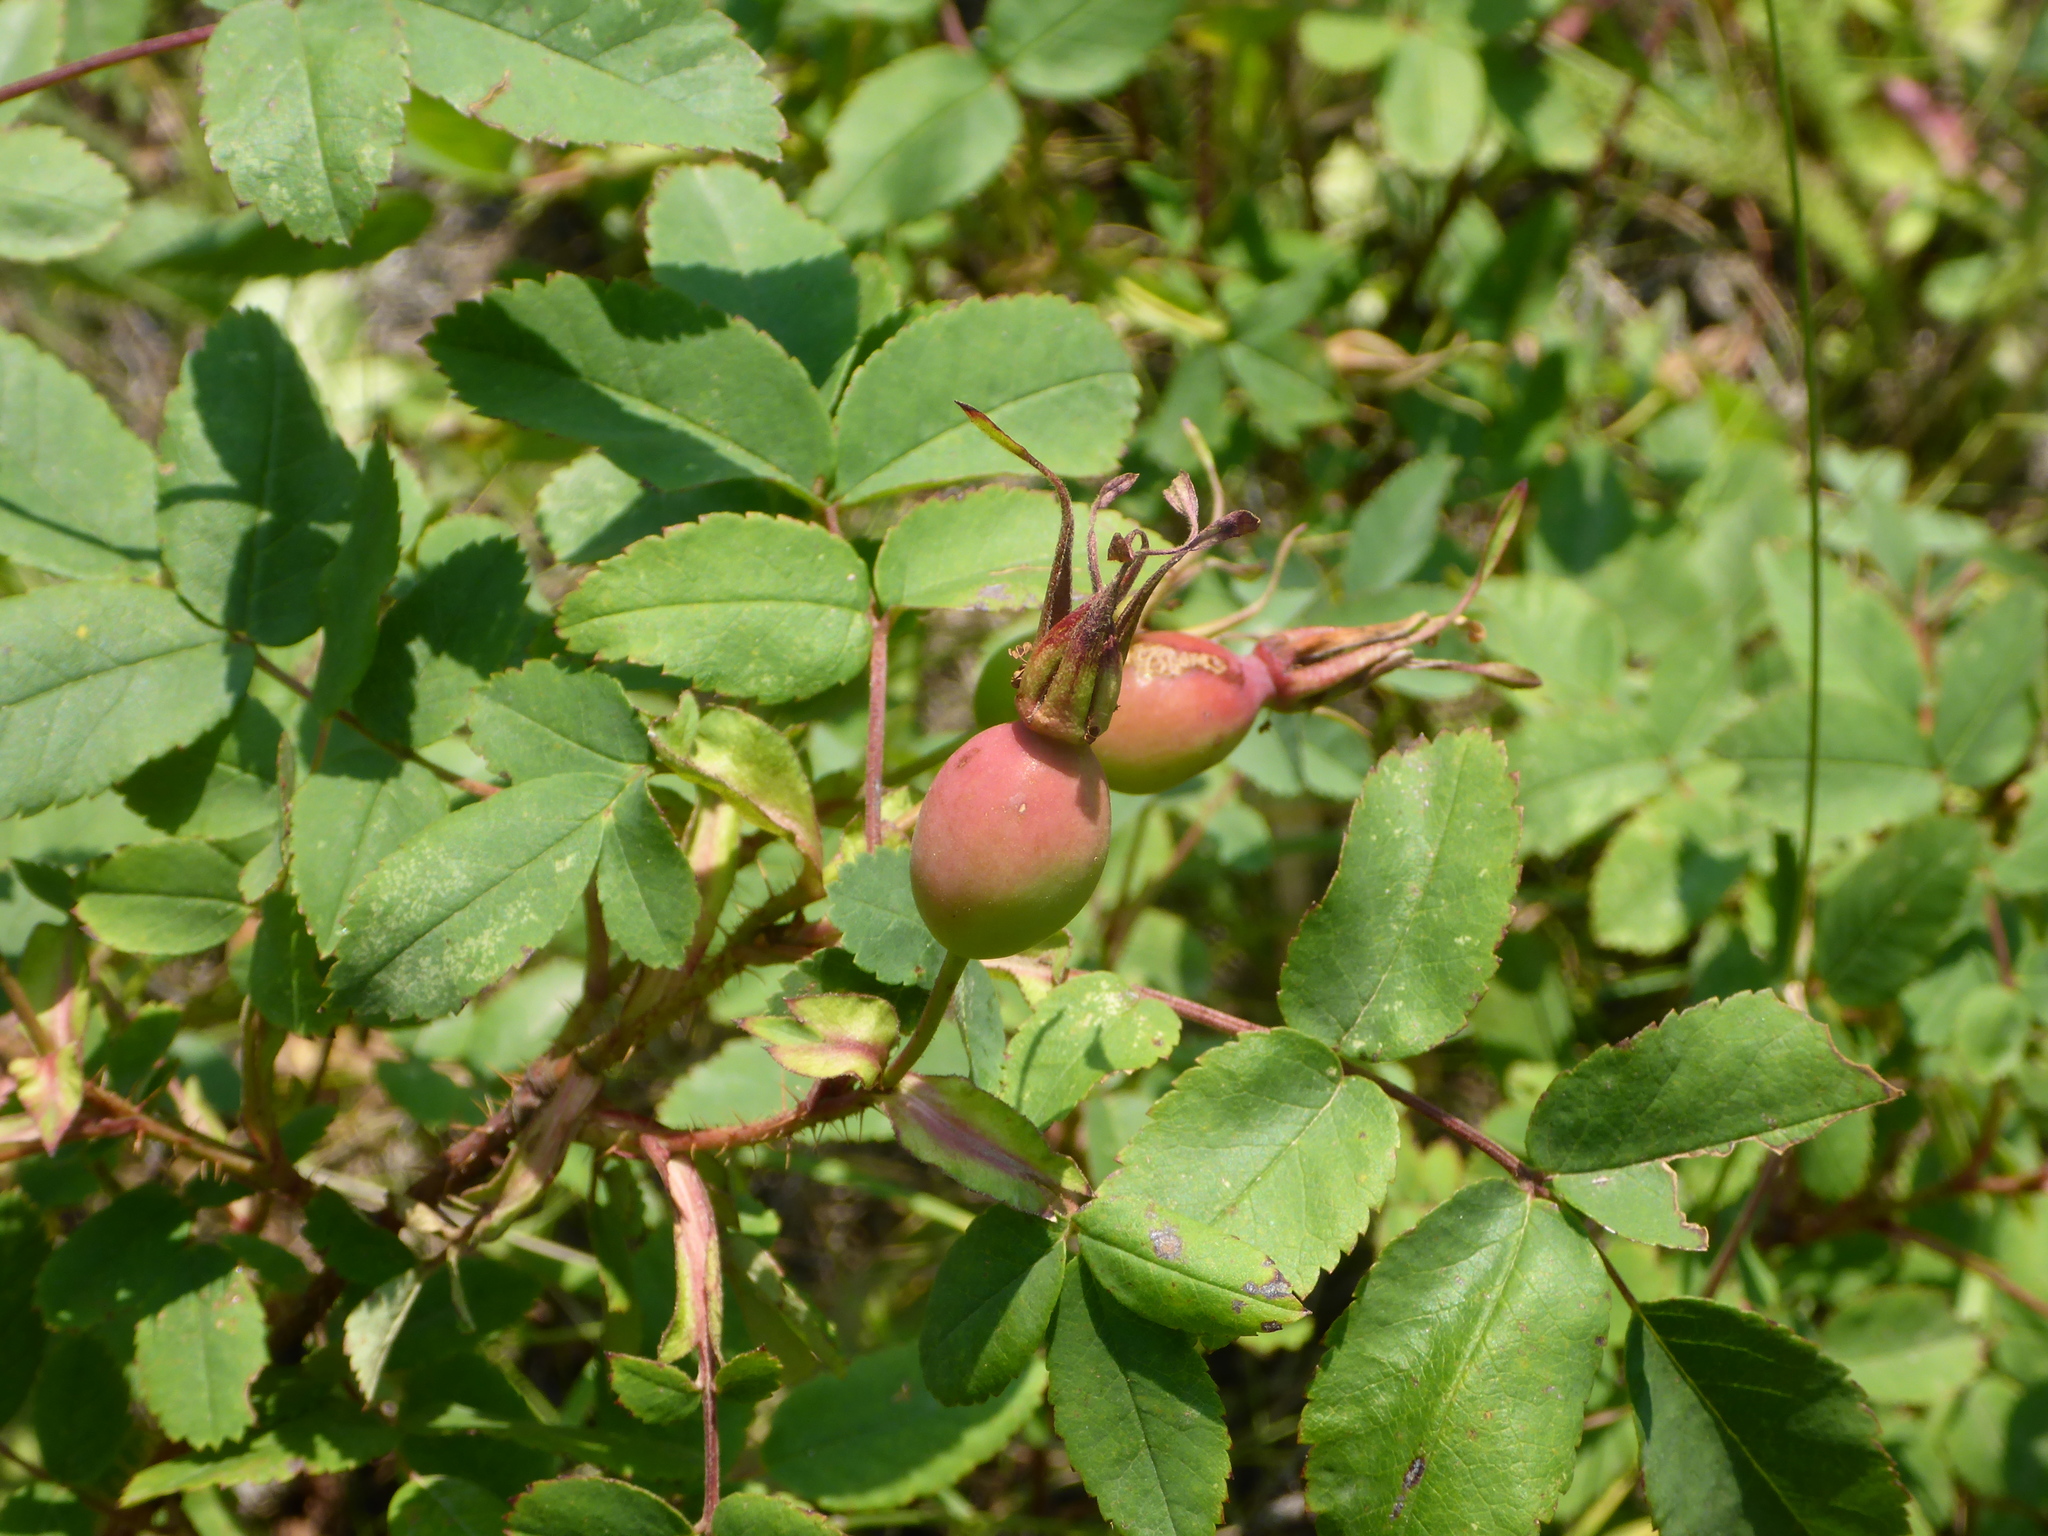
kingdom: Plantae
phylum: Tracheophyta
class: Magnoliopsida
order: Rosales
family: Rosaceae
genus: Rosa
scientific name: Rosa acicularis
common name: Prickly rose
